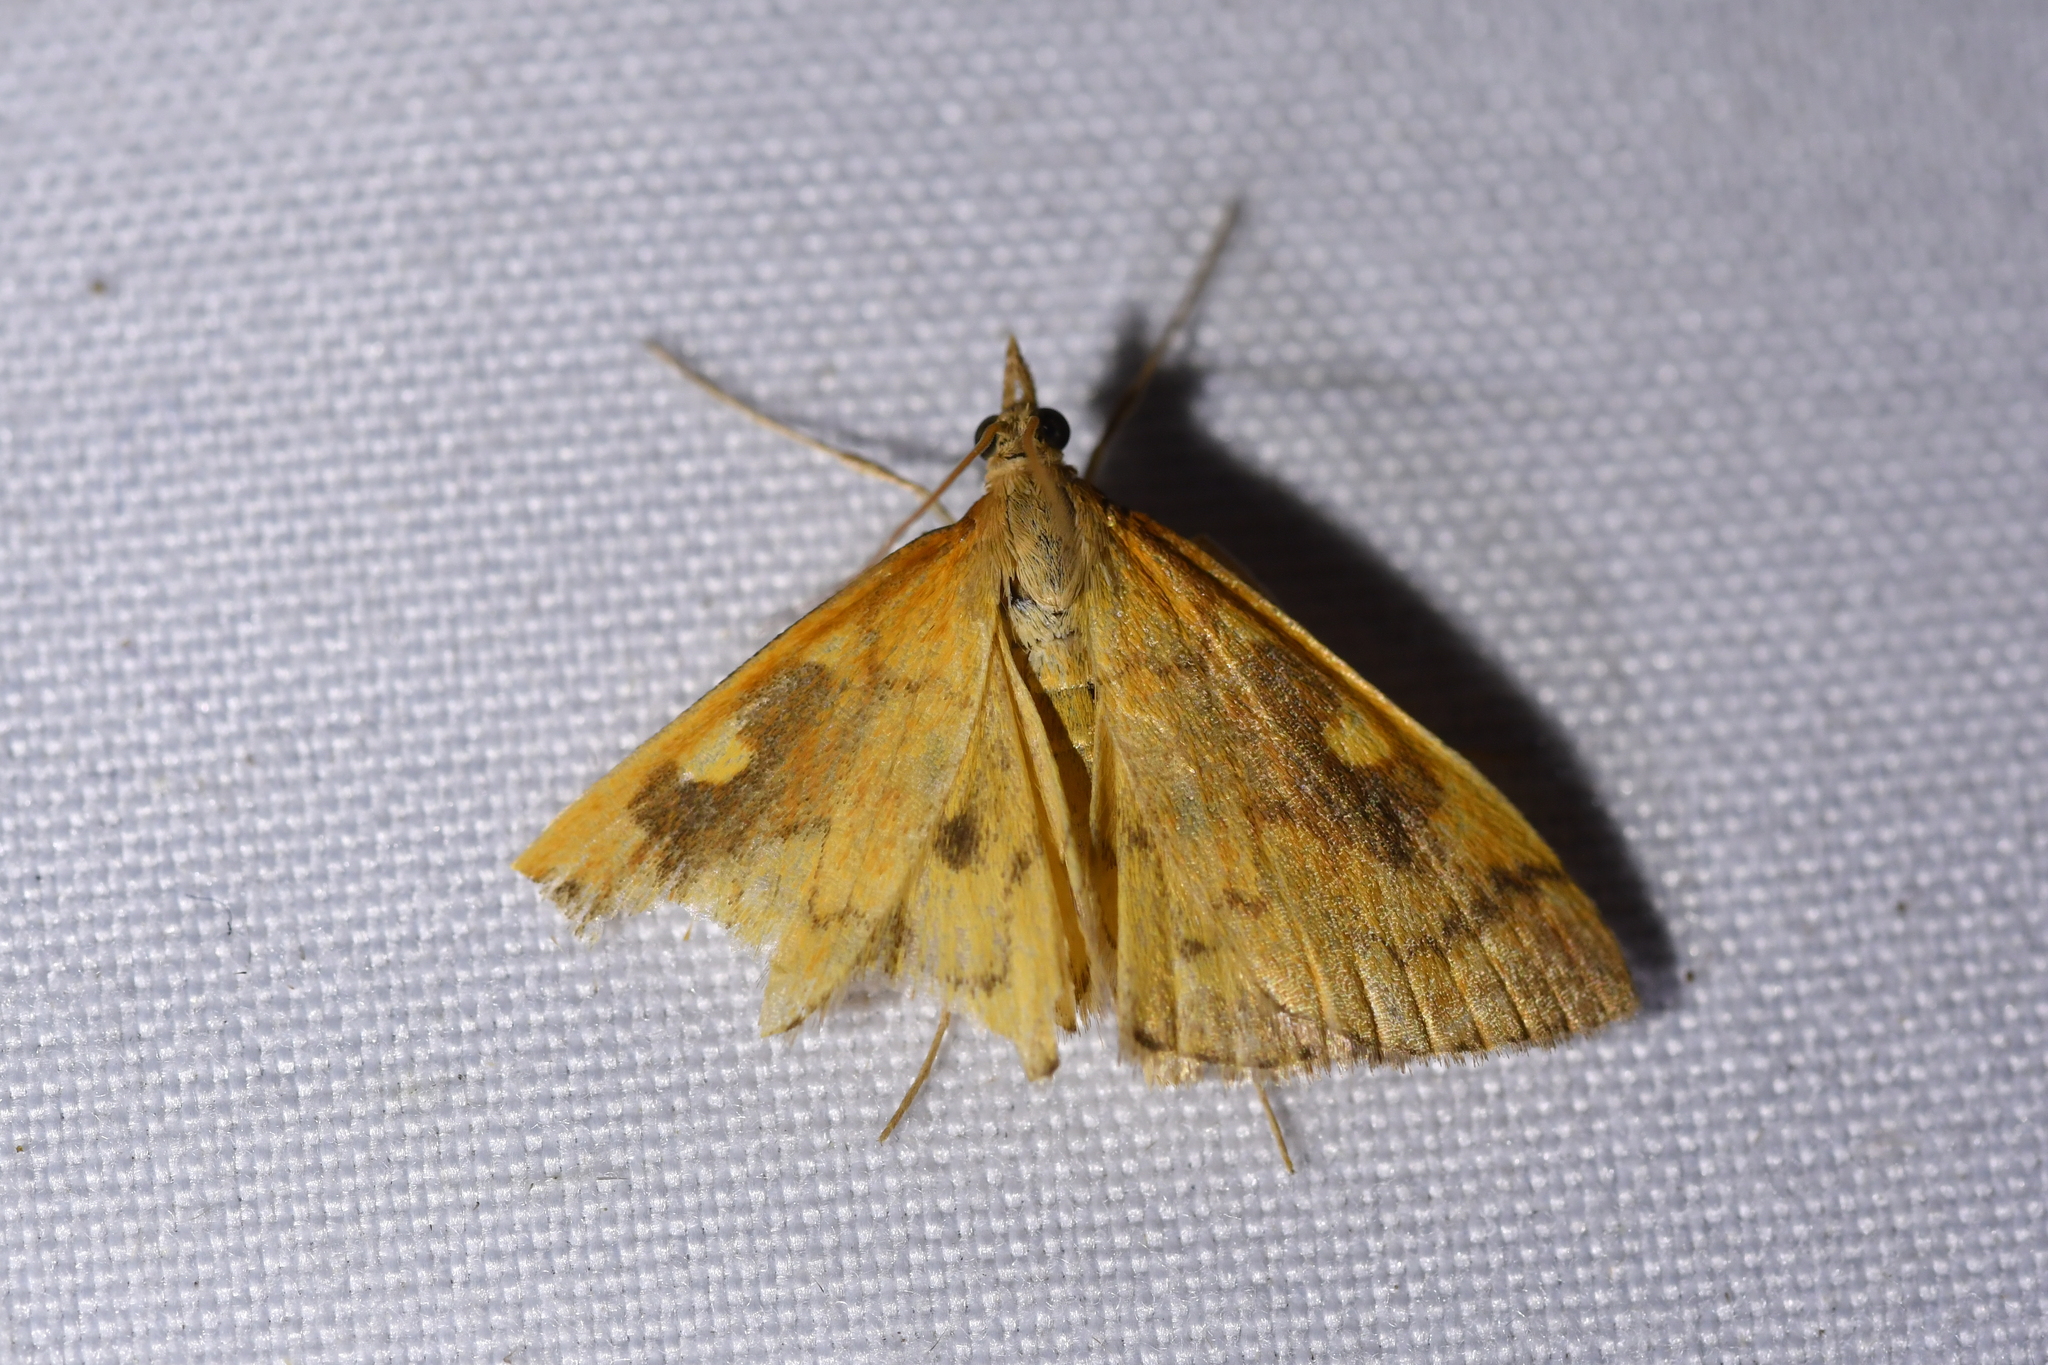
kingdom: Animalia
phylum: Arthropoda
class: Insecta
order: Lepidoptera
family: Crambidae
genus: Udea
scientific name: Udea Mnesictena flavidalis
